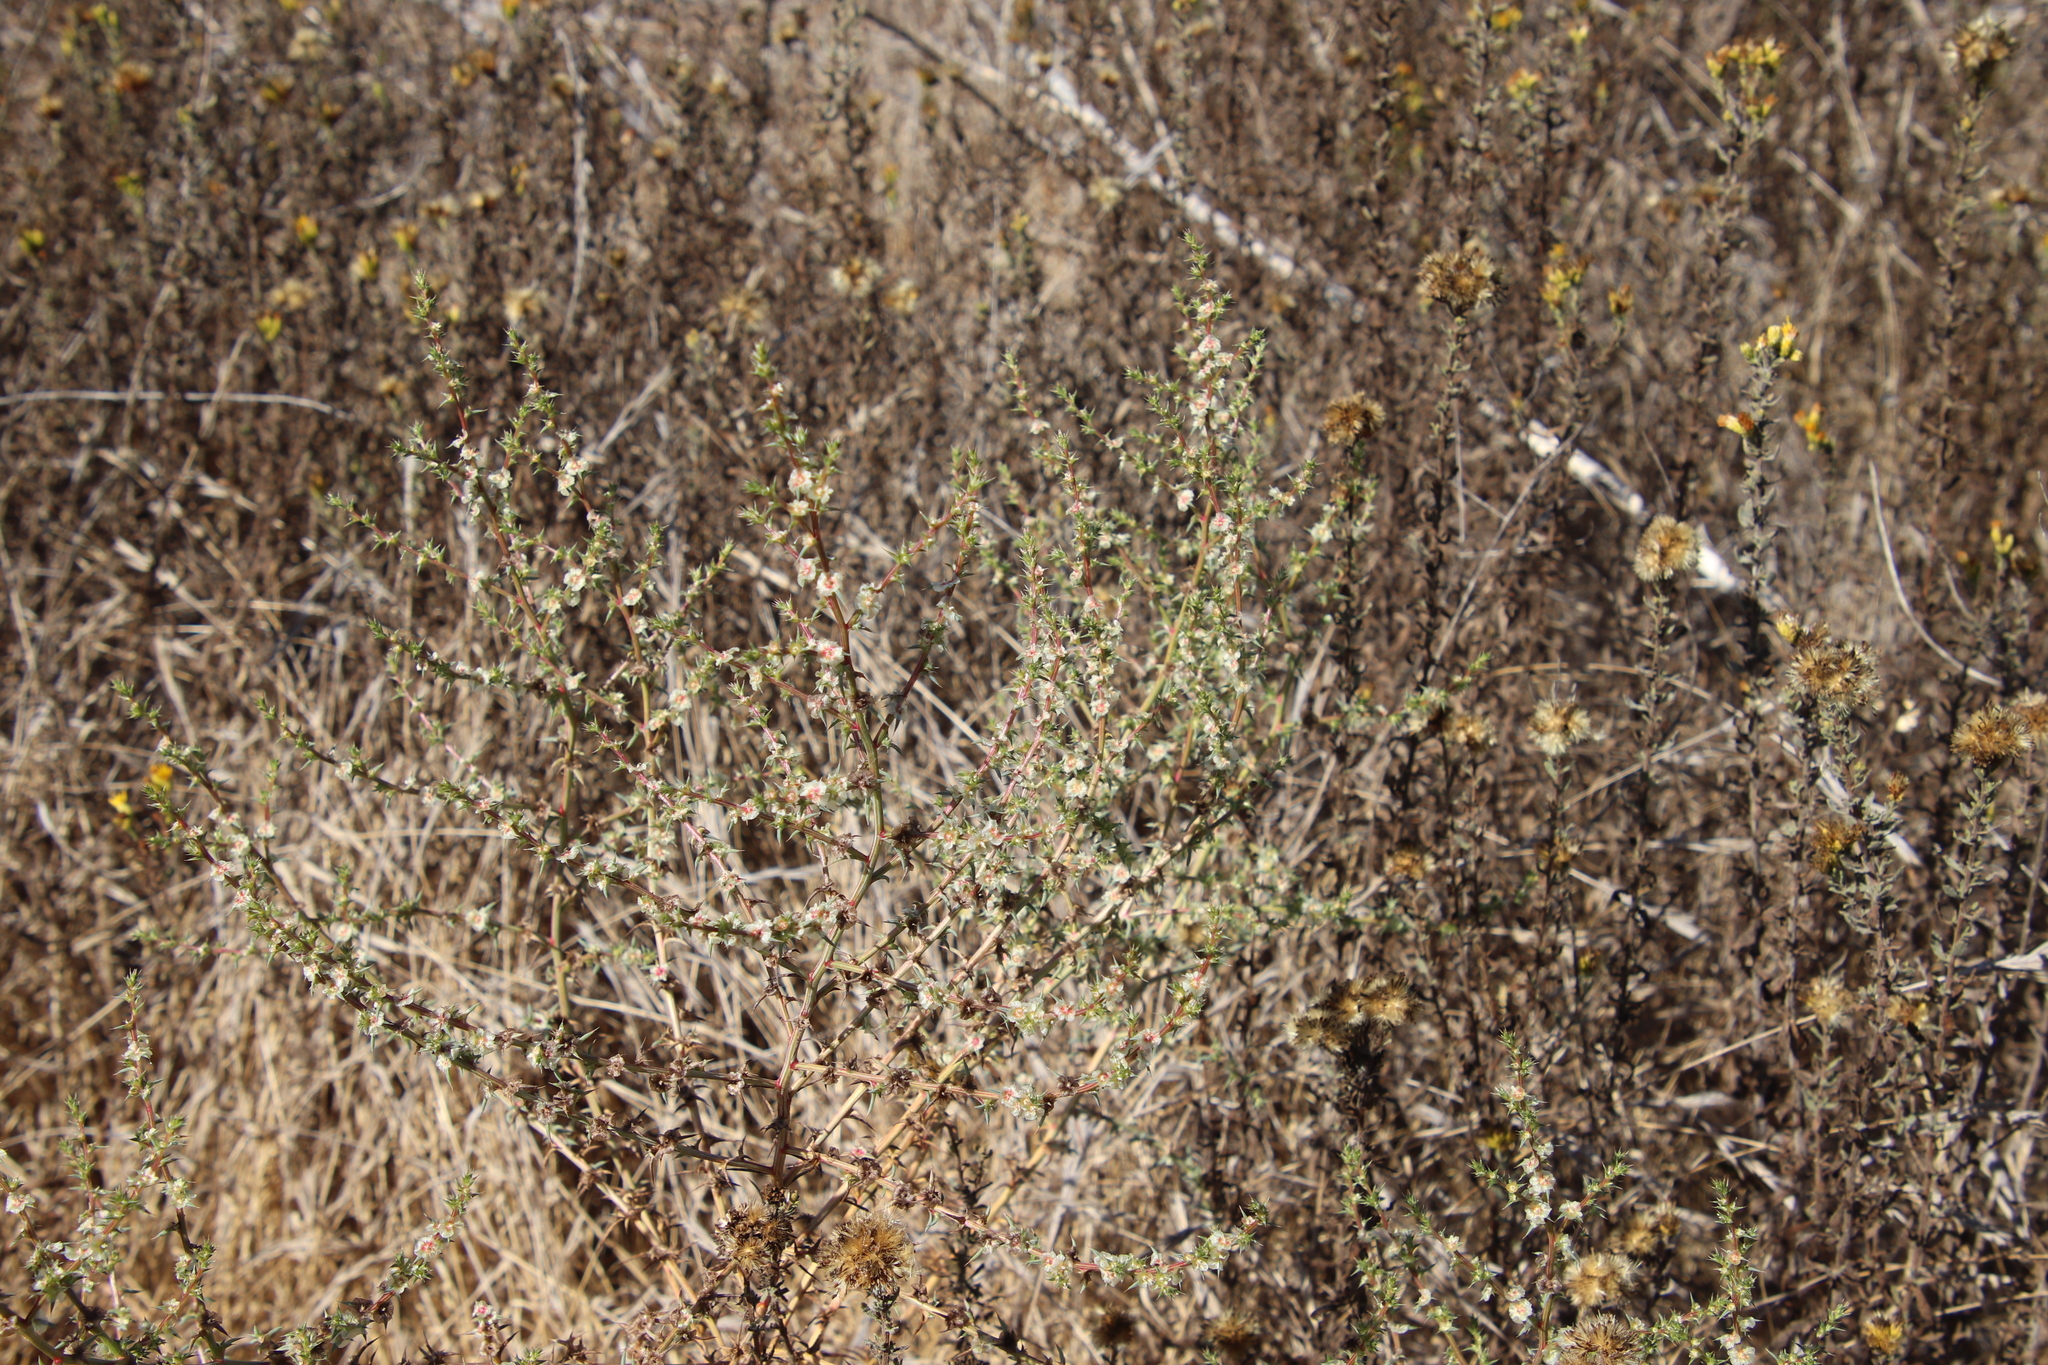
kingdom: Plantae
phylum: Tracheophyta
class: Magnoliopsida
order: Caryophyllales
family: Amaranthaceae
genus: Salsola
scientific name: Salsola australis
